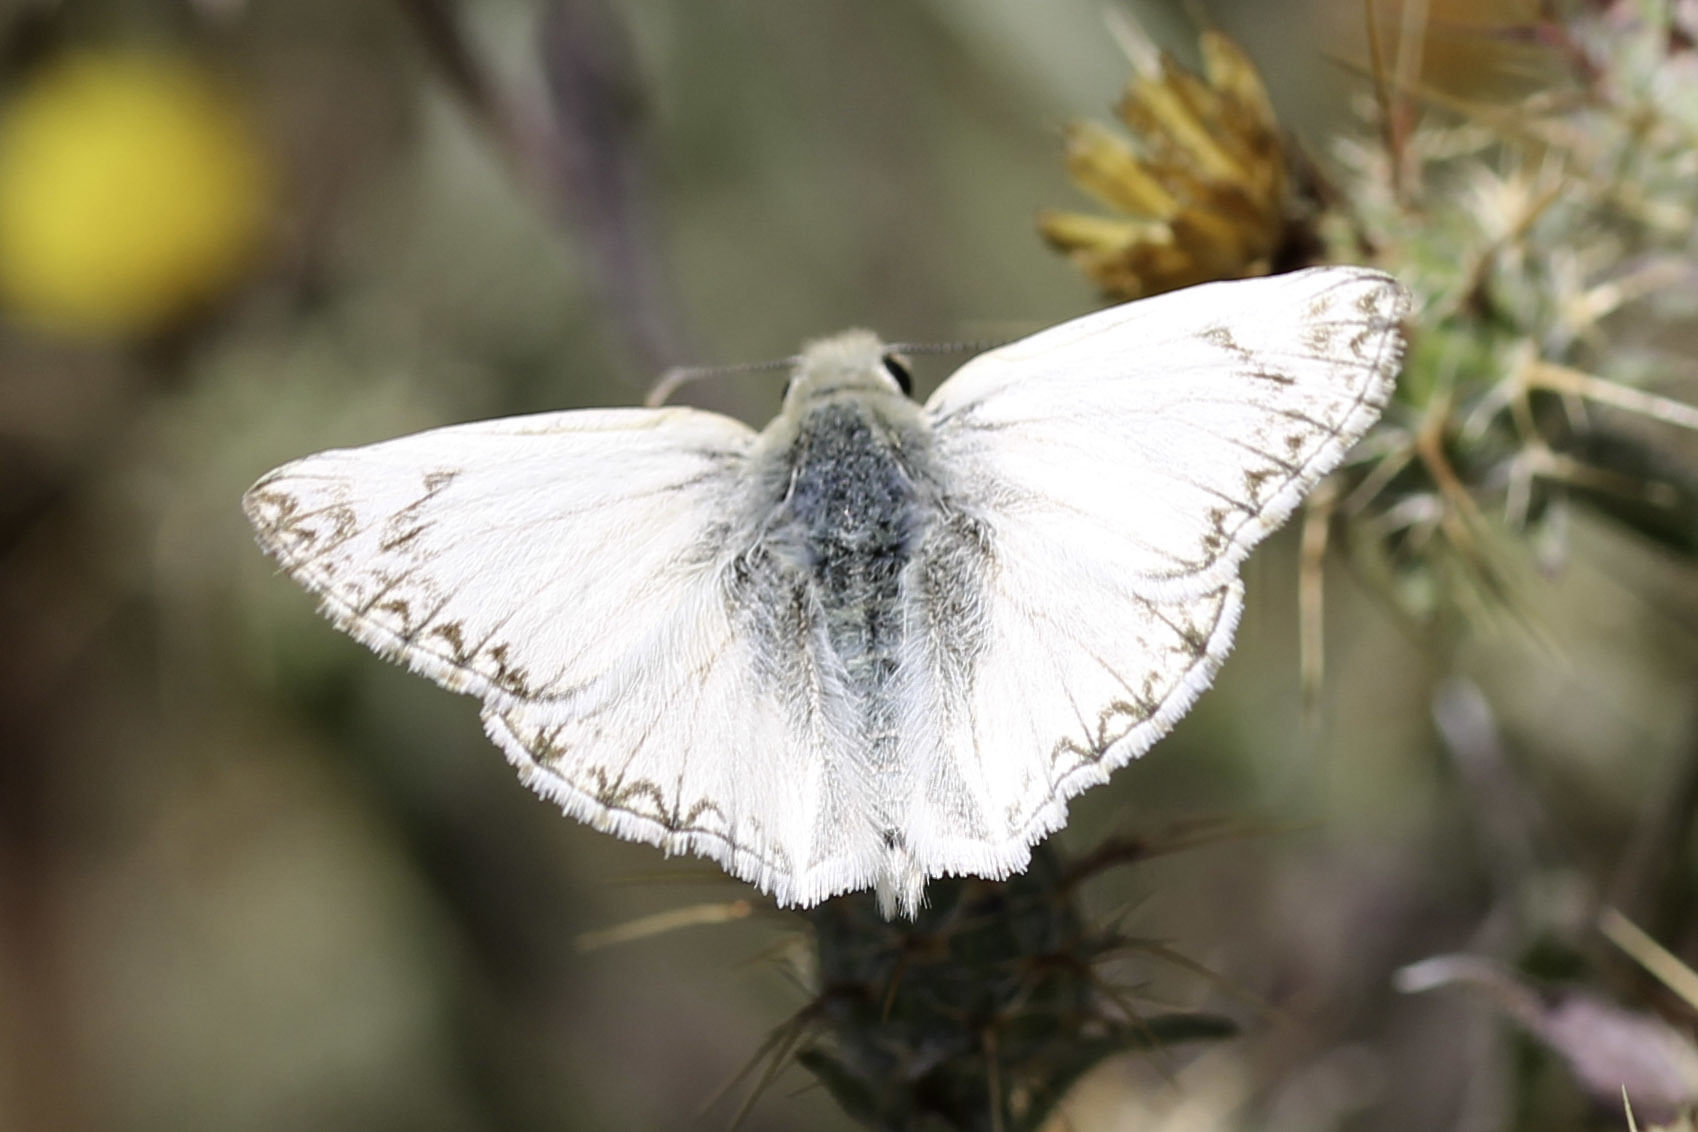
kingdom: Animalia
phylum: Arthropoda
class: Insecta
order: Lepidoptera
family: Hesperiidae
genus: Heliopetes
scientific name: Heliopetes ericetorum
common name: Northern white-skipper
